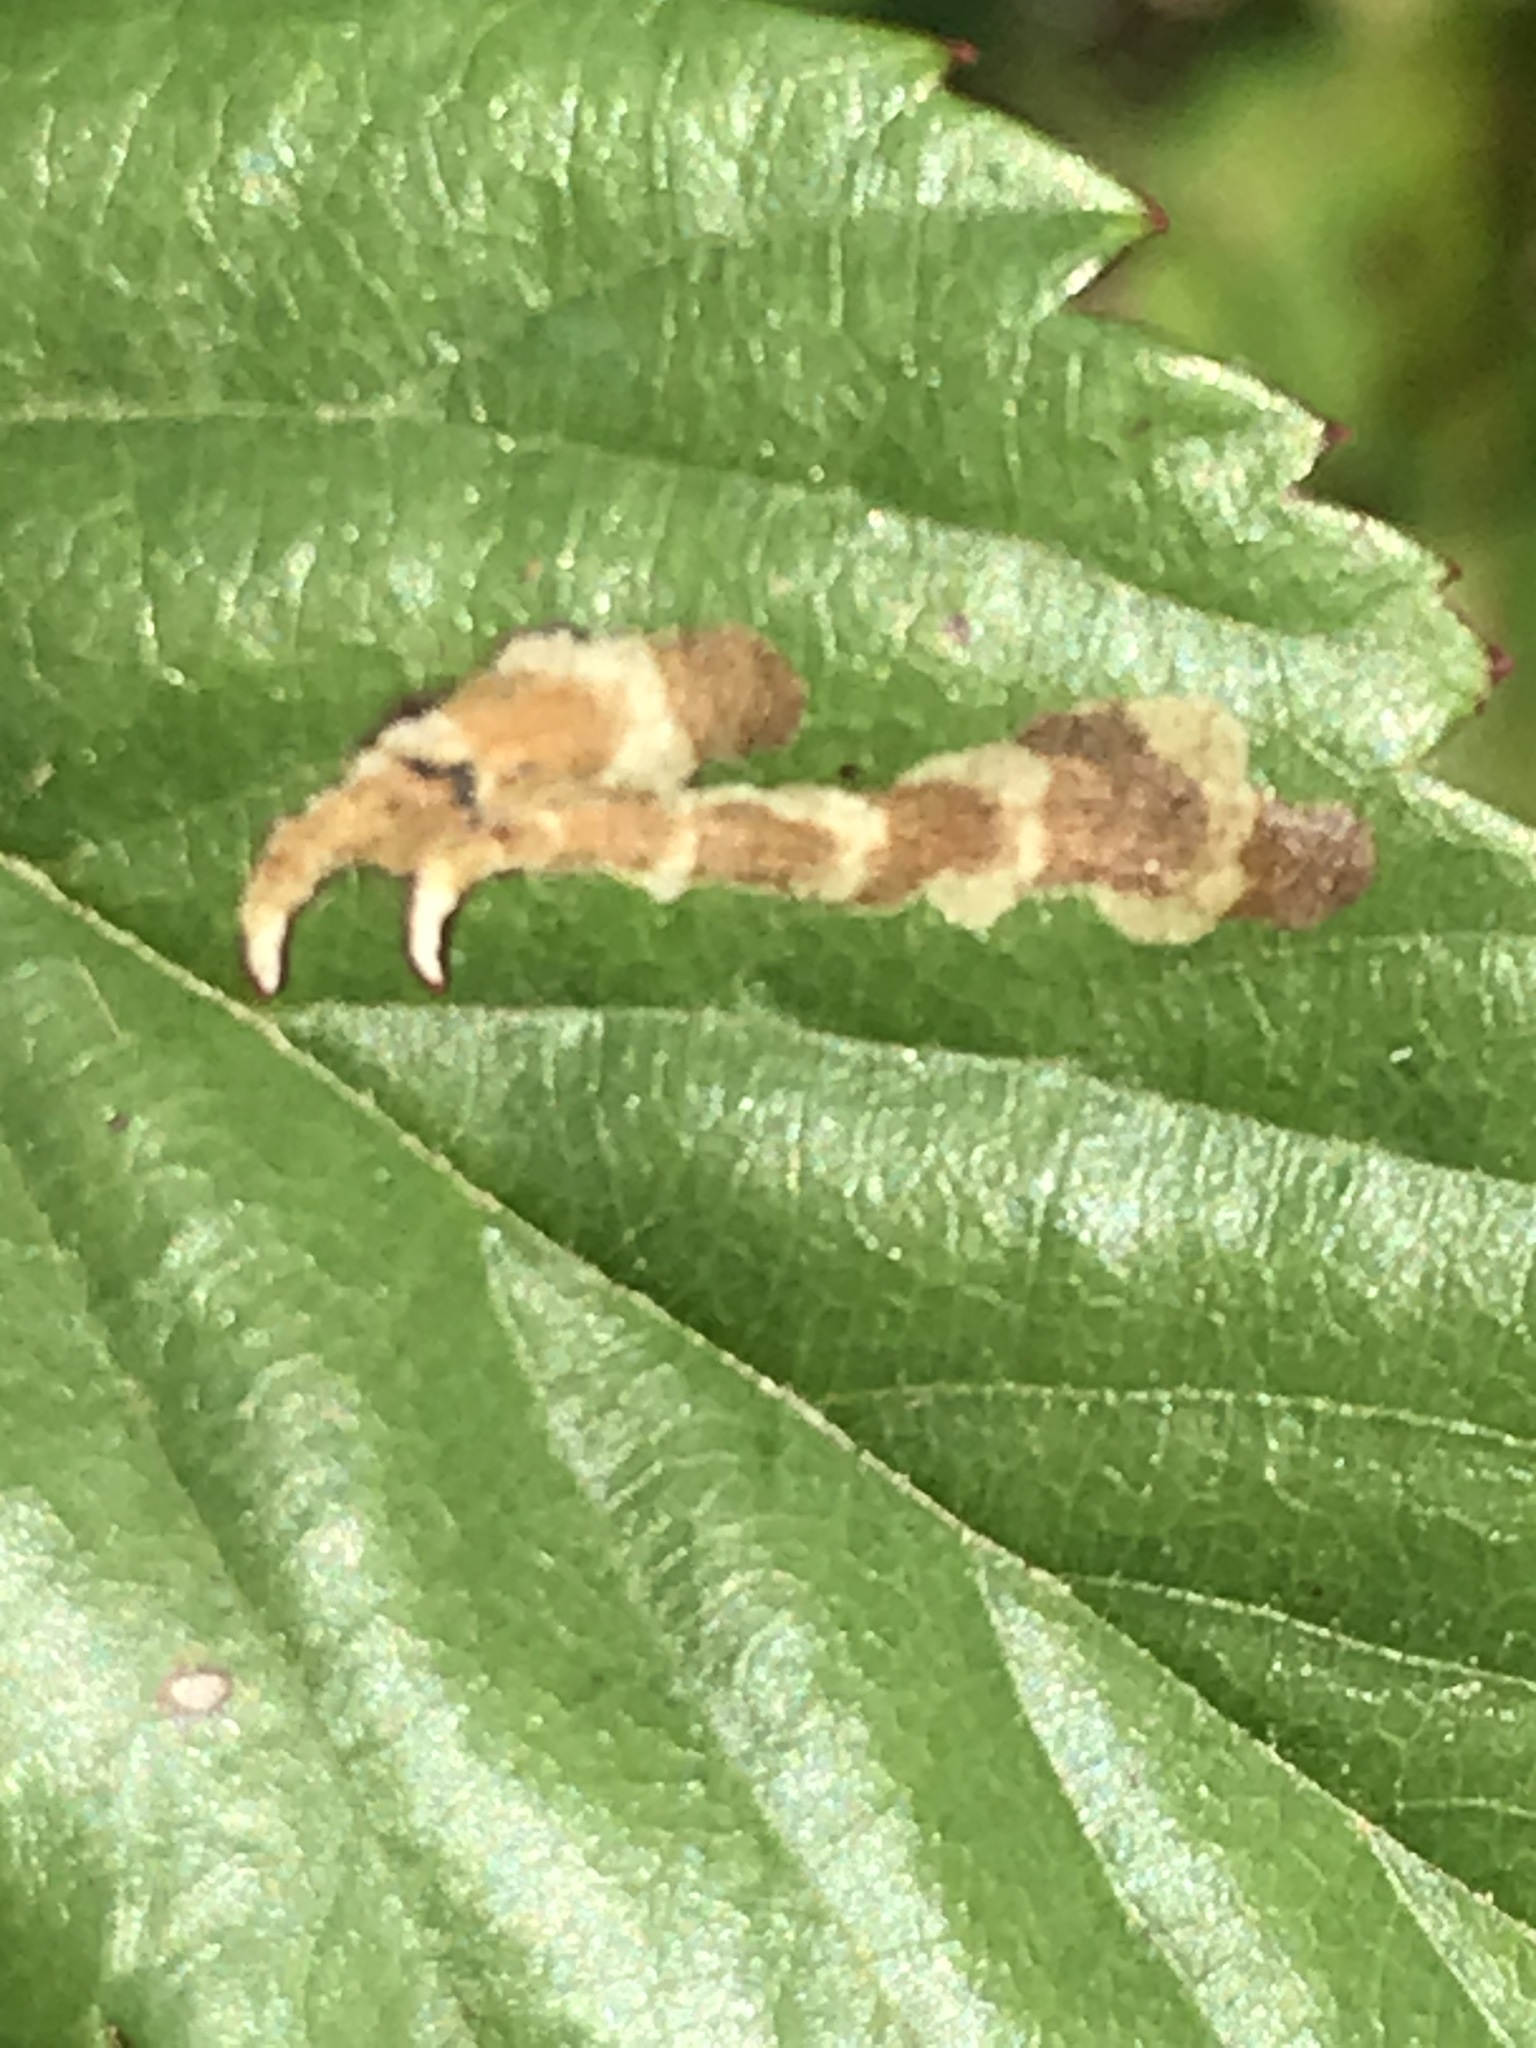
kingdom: Animalia
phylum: Arthropoda
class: Insecta
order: Lepidoptera
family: Tischeriidae
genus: Coptotriche
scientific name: Coptotriche aenea
